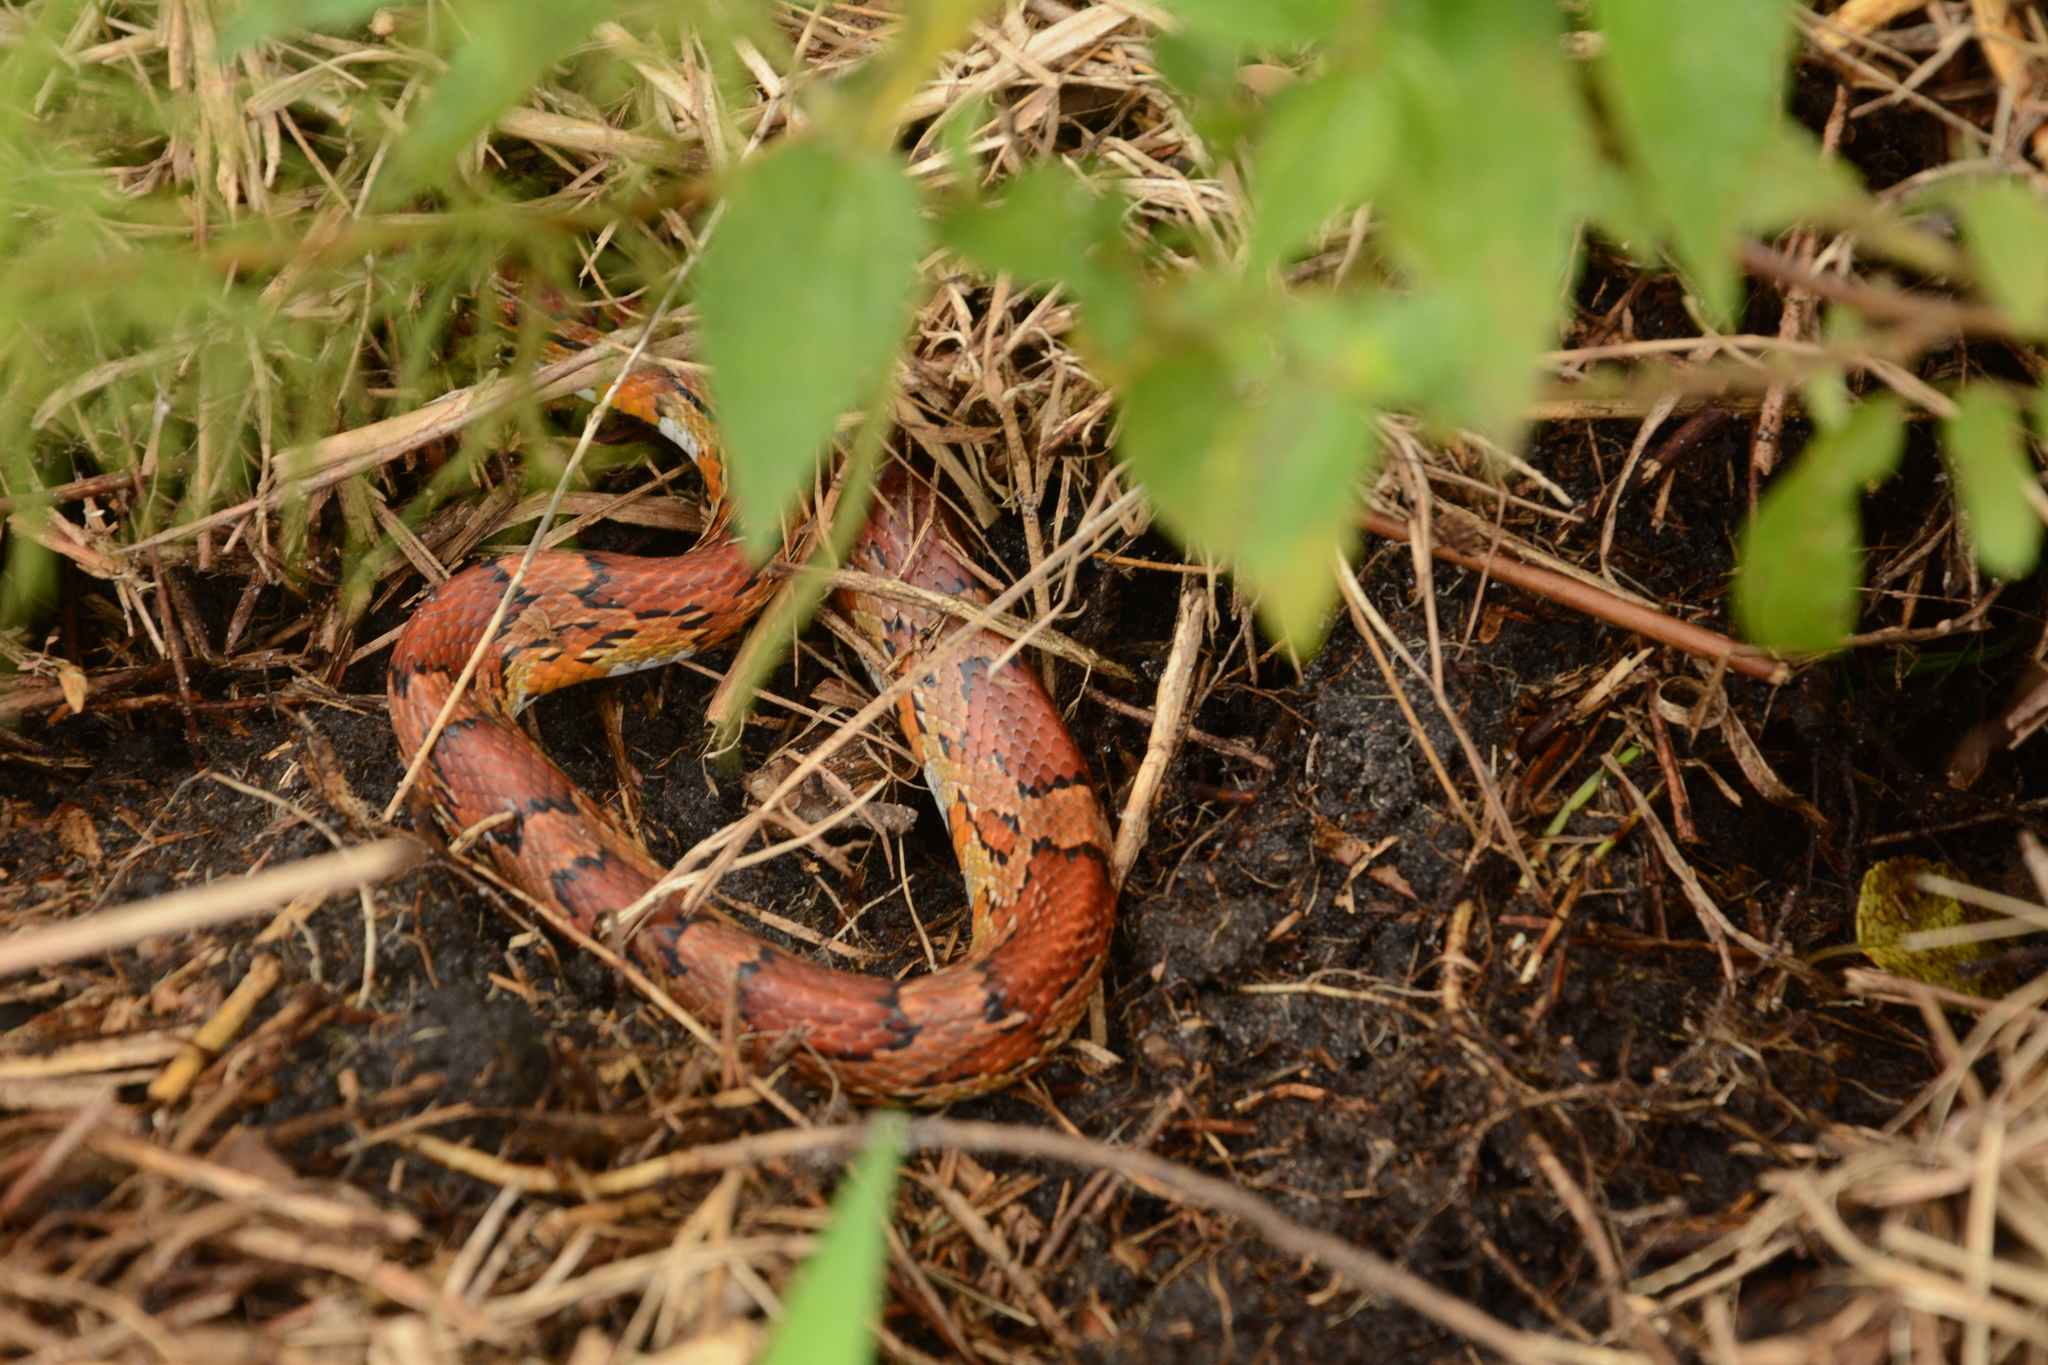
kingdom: Animalia
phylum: Chordata
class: Squamata
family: Colubridae
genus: Pantherophis
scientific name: Pantherophis guttatus
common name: Red cornsnake
